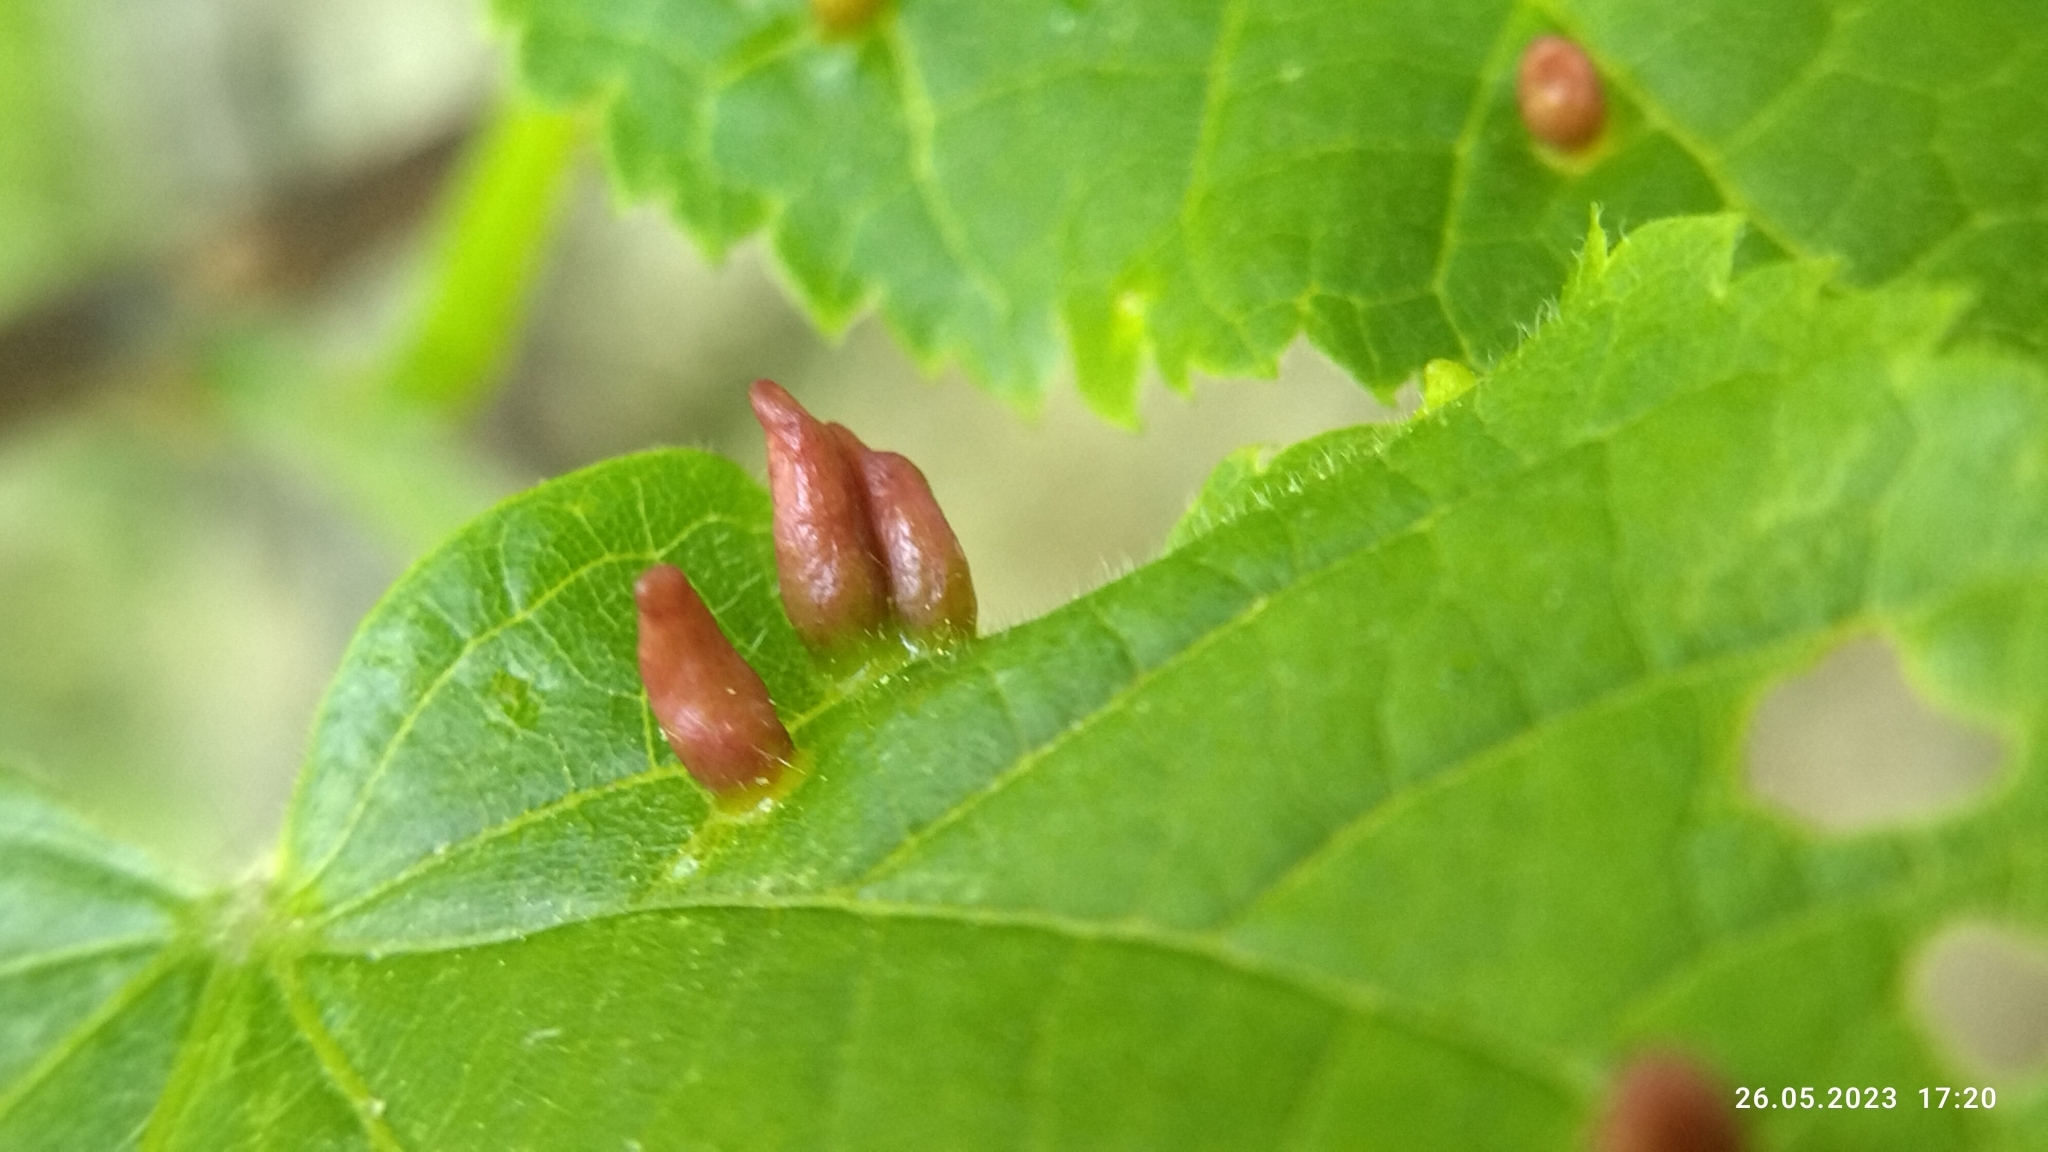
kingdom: Animalia
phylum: Arthropoda
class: Arachnida
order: Trombidiformes
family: Eriophyidae
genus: Eriophyes
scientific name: Eriophyes tiliae
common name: Red nail gall mite
